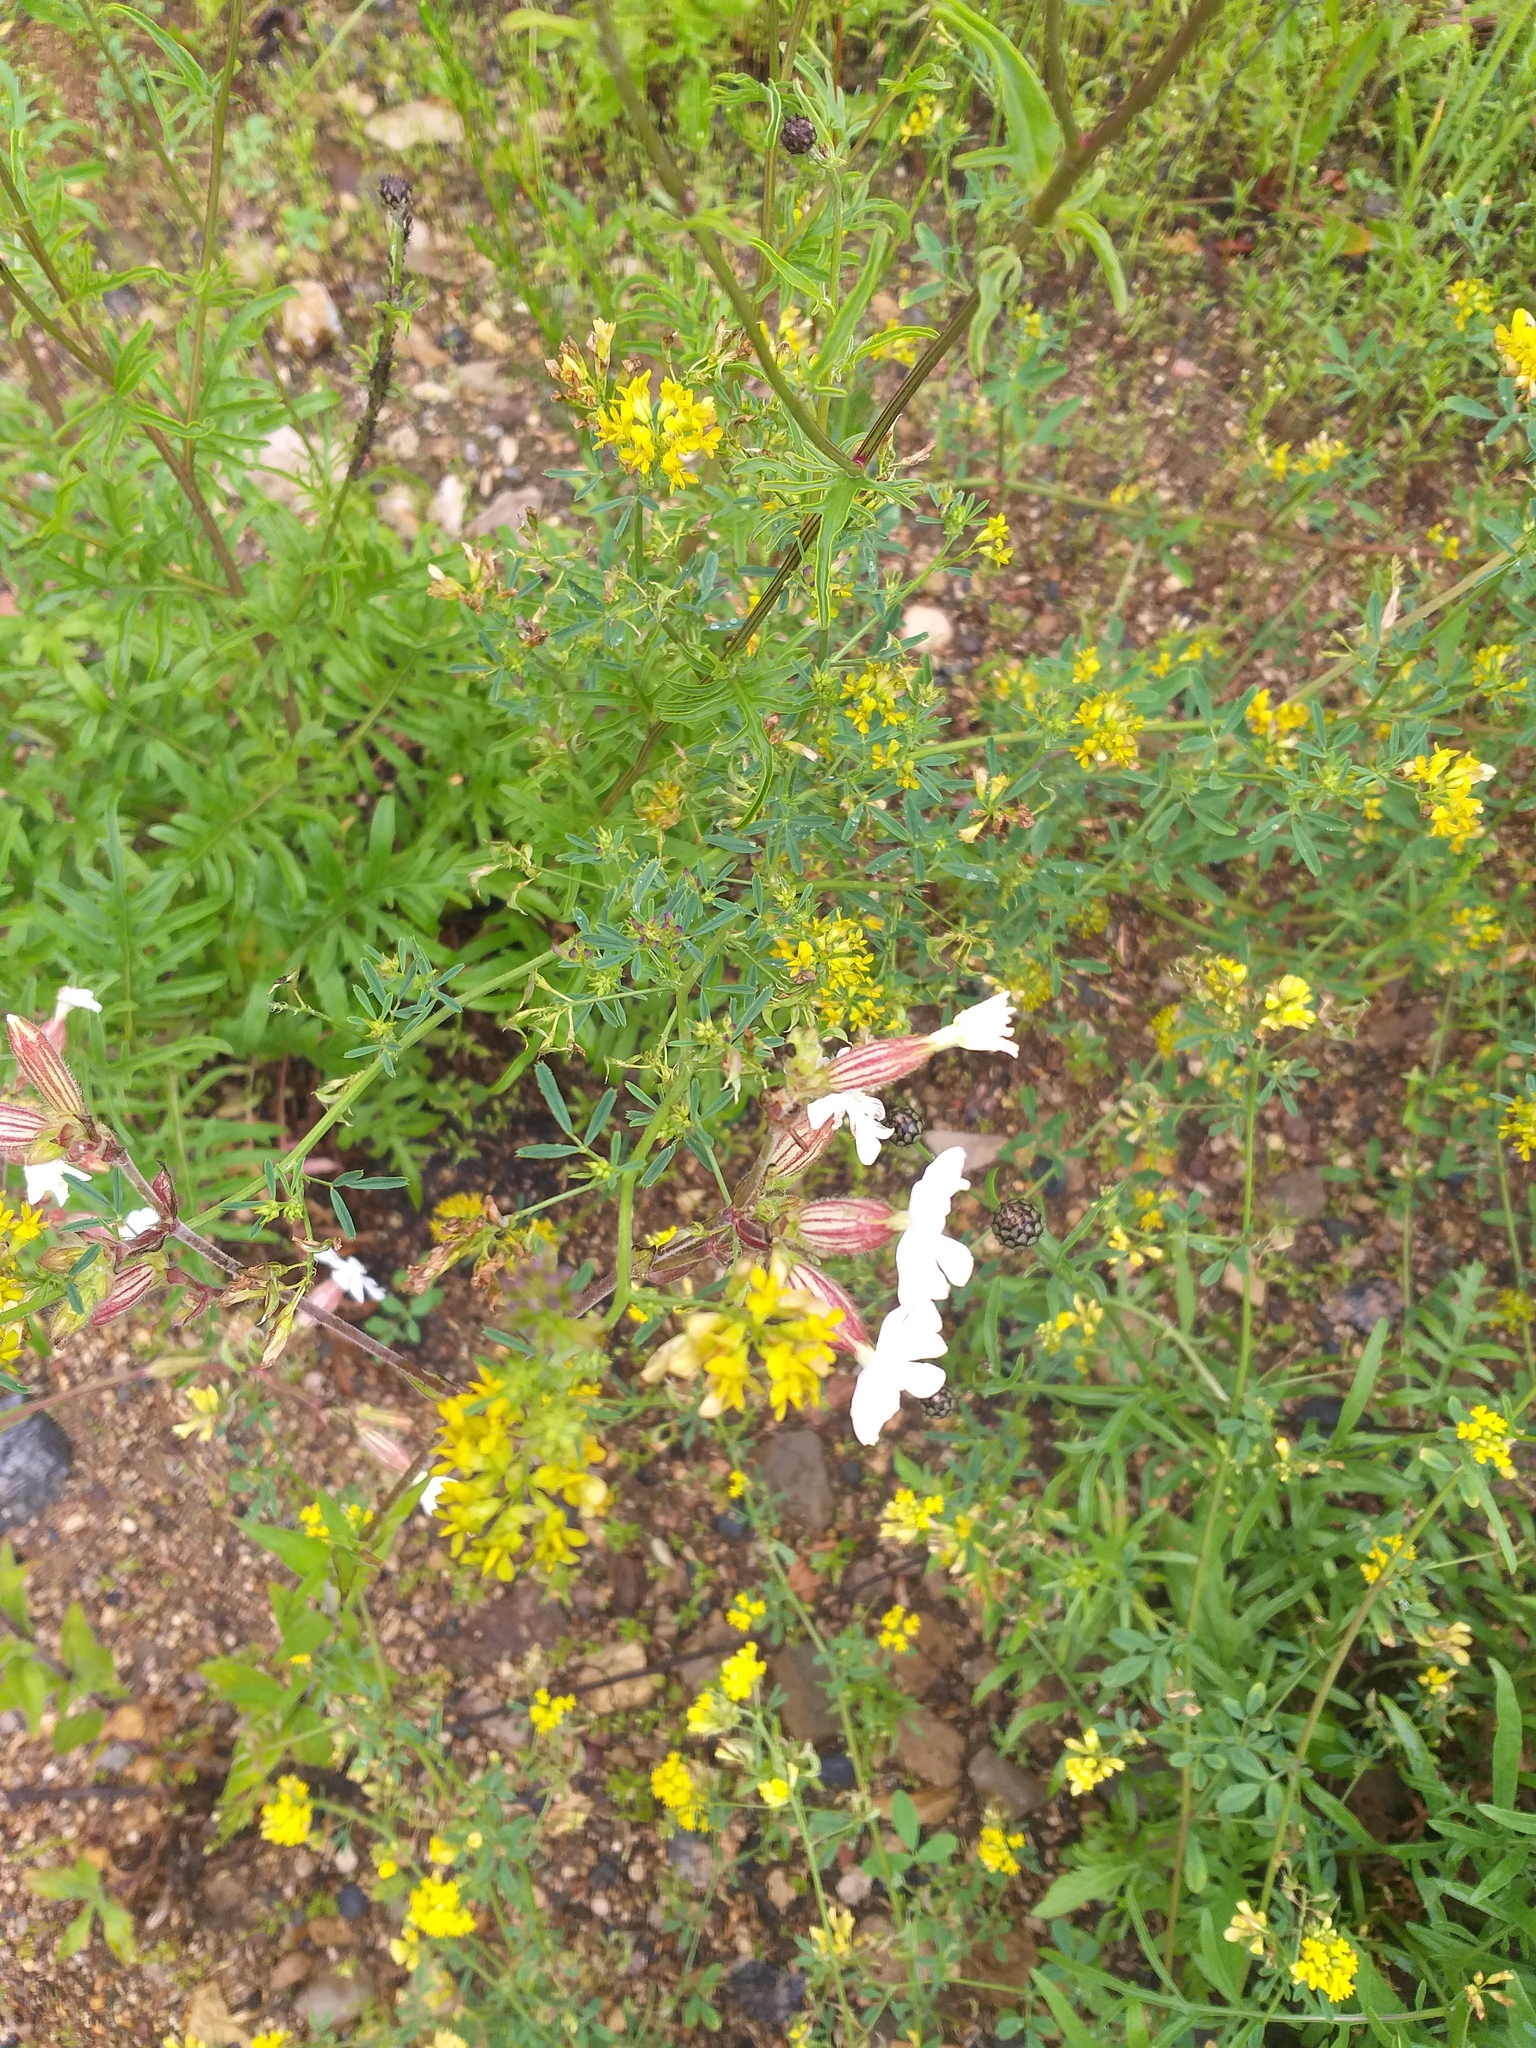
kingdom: Plantae
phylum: Tracheophyta
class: Magnoliopsida
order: Caryophyllales
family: Caryophyllaceae
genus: Silene
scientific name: Silene latifolia
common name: White campion
